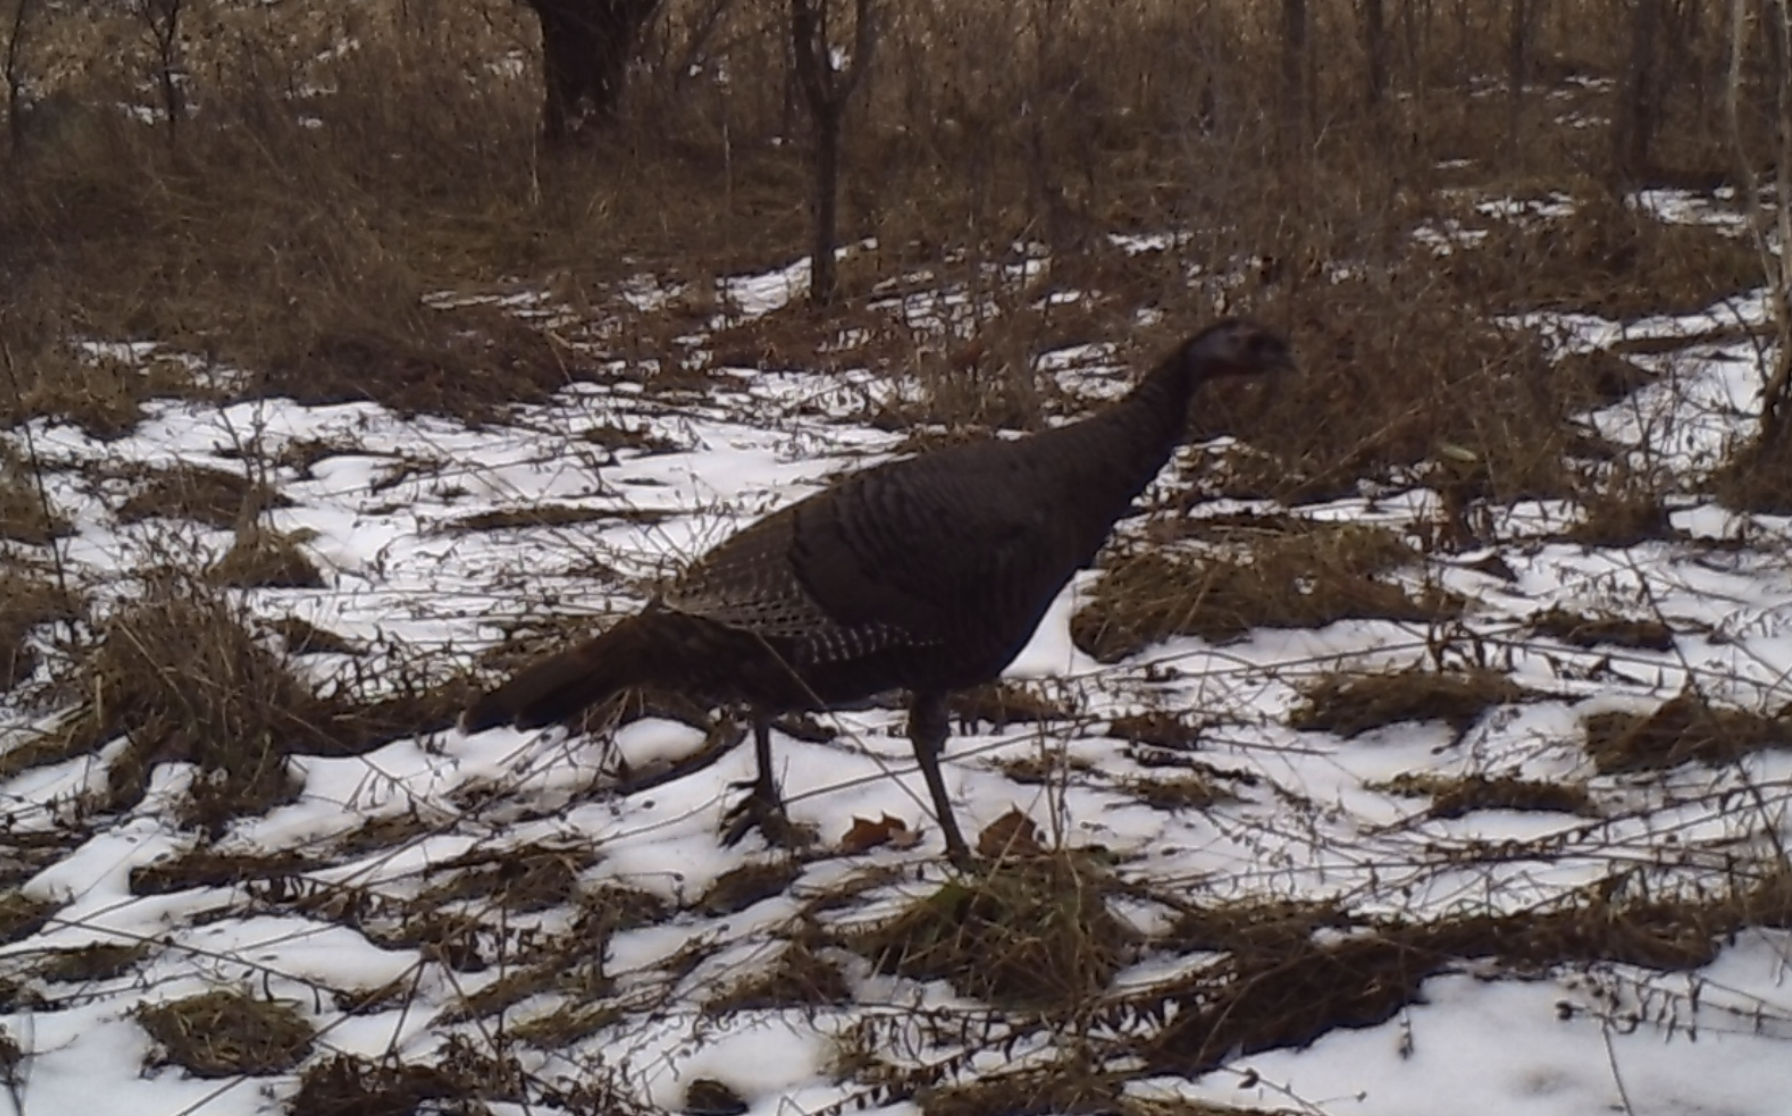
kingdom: Animalia
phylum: Chordata
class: Aves
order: Galliformes
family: Phasianidae
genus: Meleagris
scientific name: Meleagris gallopavo
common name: Wild turkey
